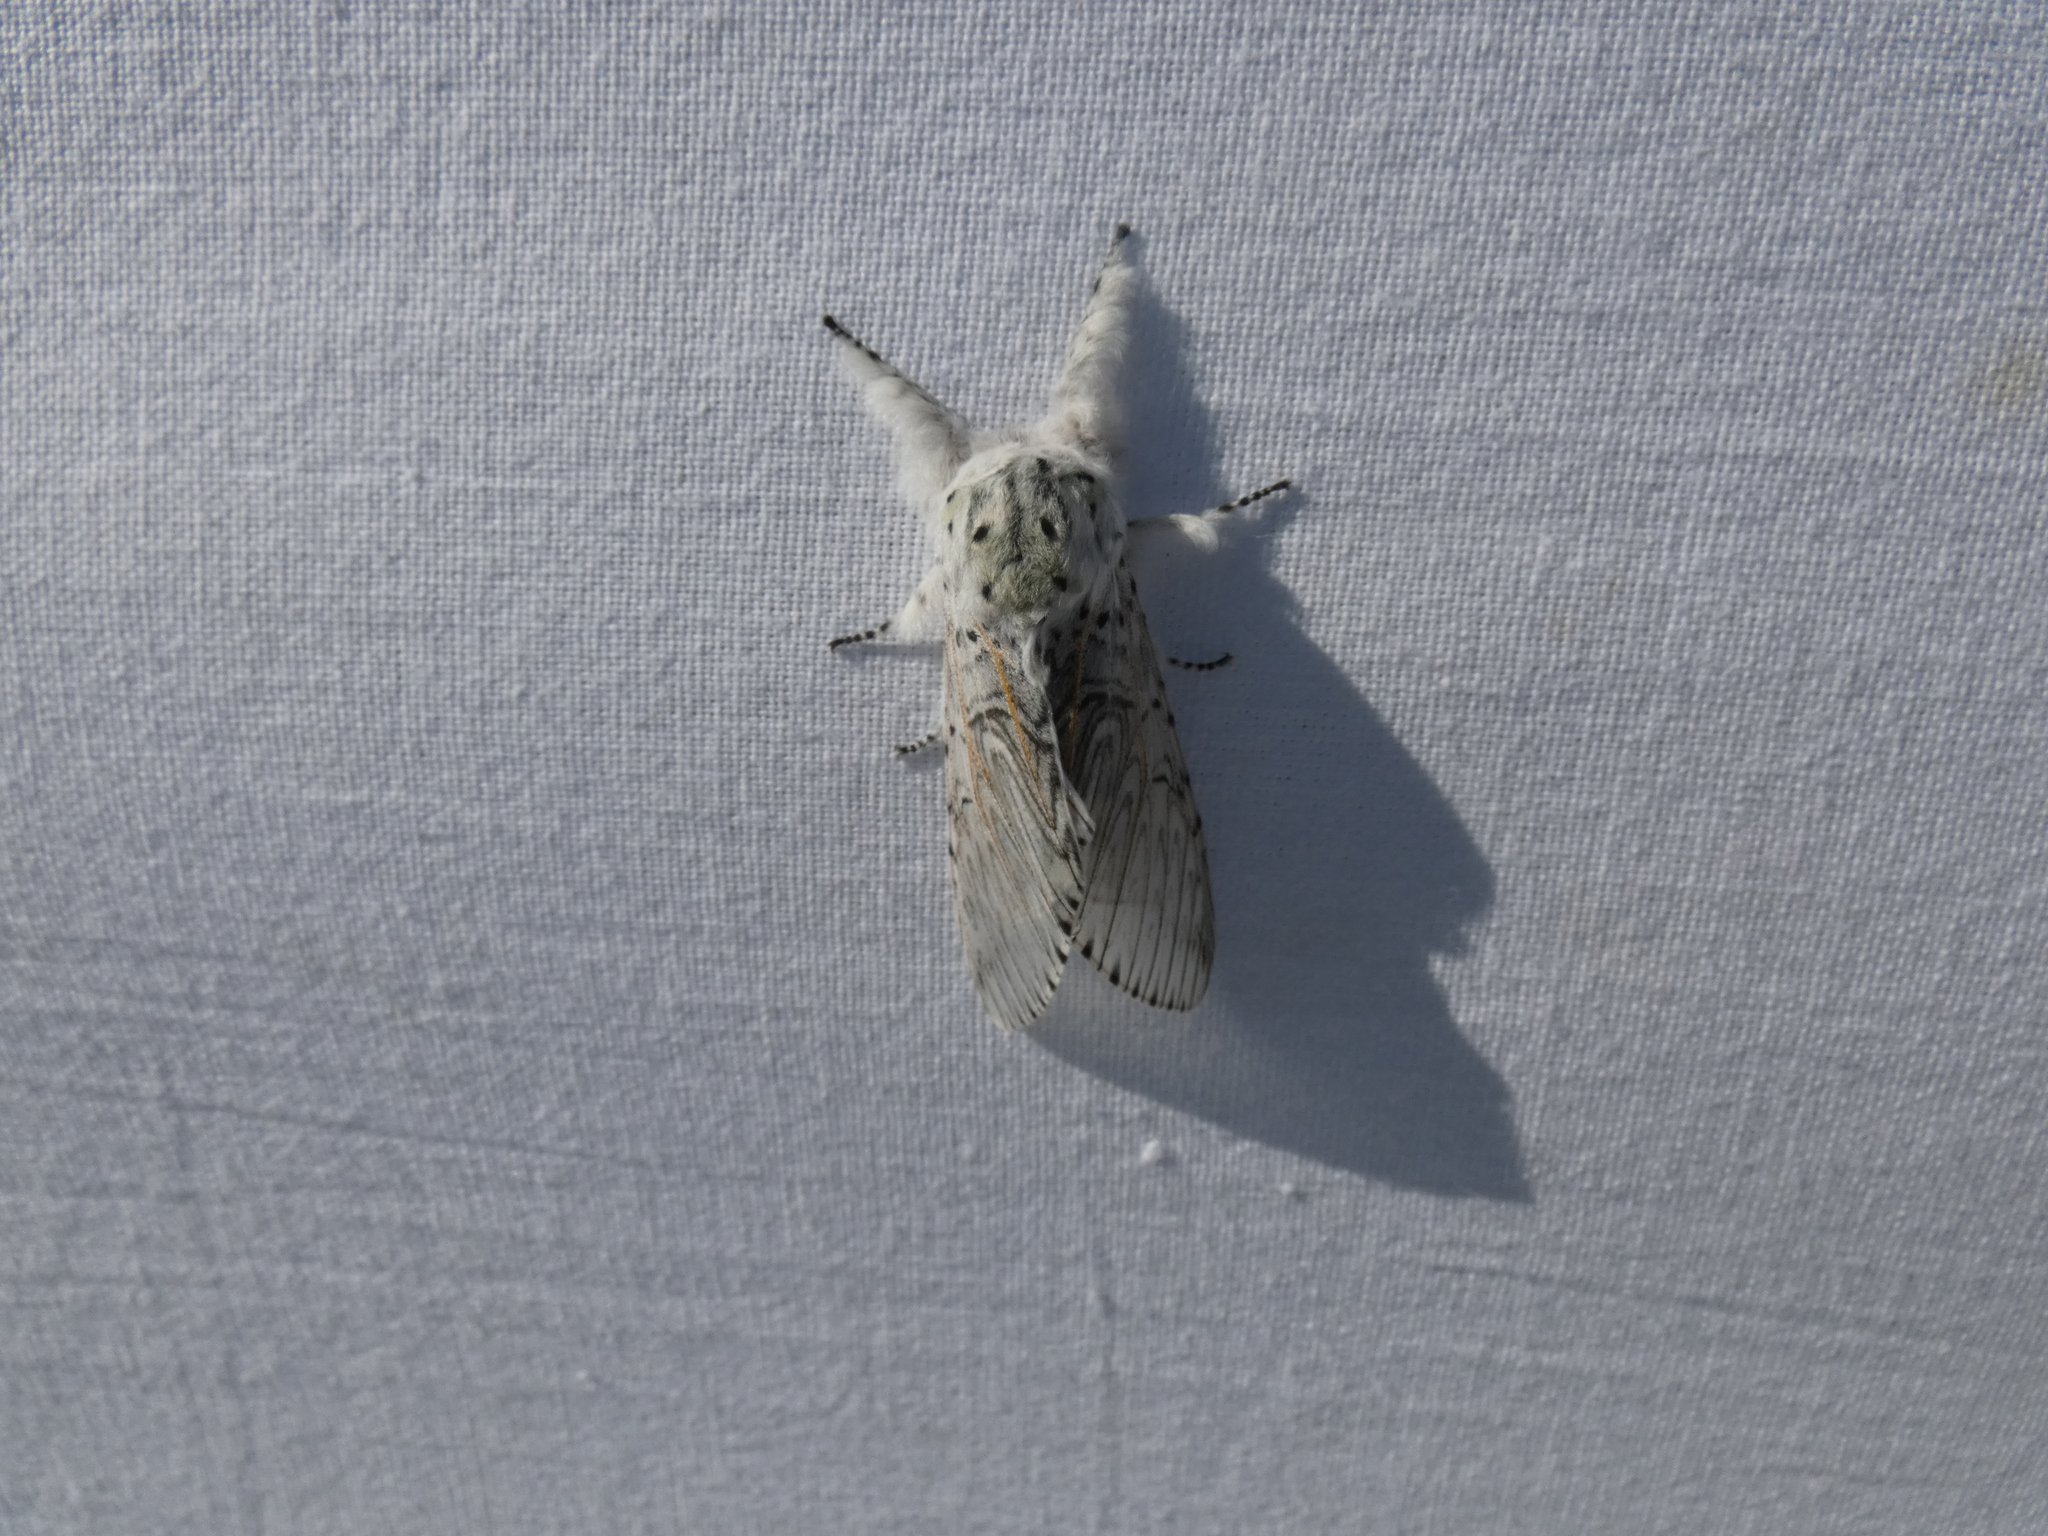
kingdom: Animalia
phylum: Arthropoda
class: Insecta
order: Lepidoptera
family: Notodontidae
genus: Cerura
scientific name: Cerura vinula
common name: Puss moth
